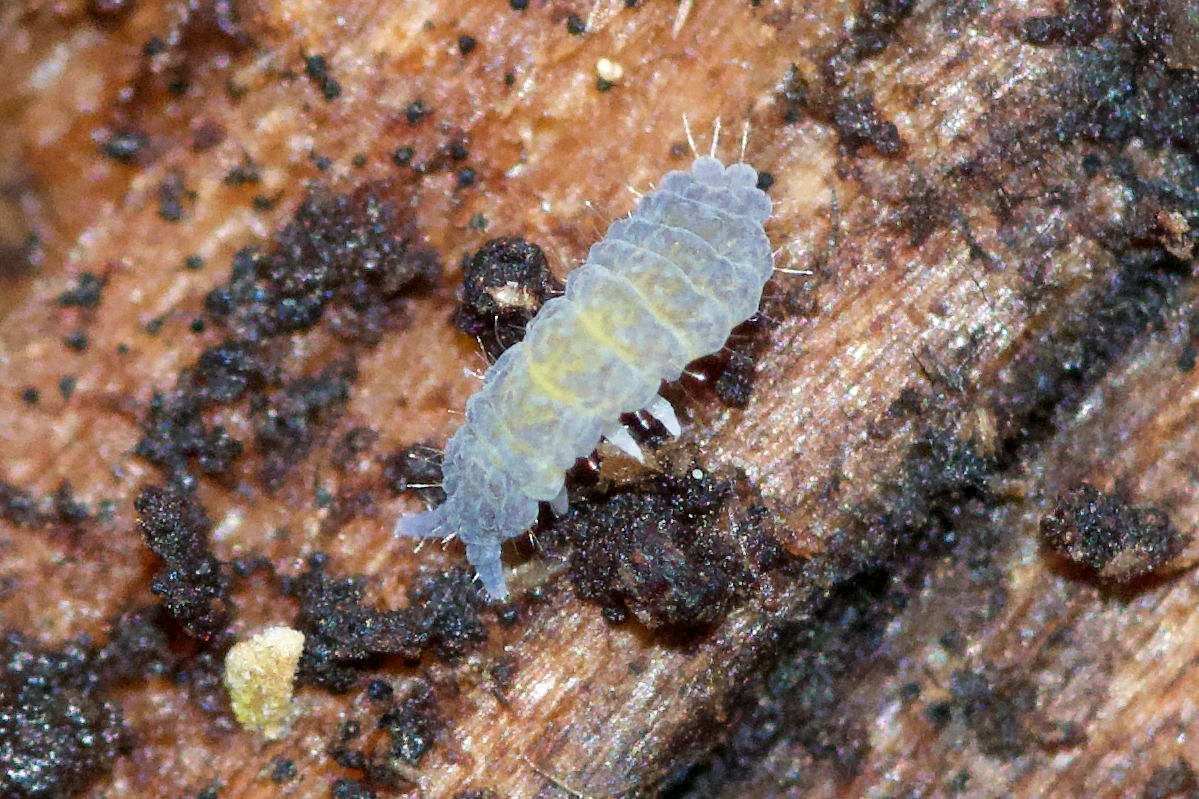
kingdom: Animalia
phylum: Arthropoda
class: Collembola
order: Poduromorpha
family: Neanuridae
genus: Neanura
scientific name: Neanura muscorum
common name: Springtail
